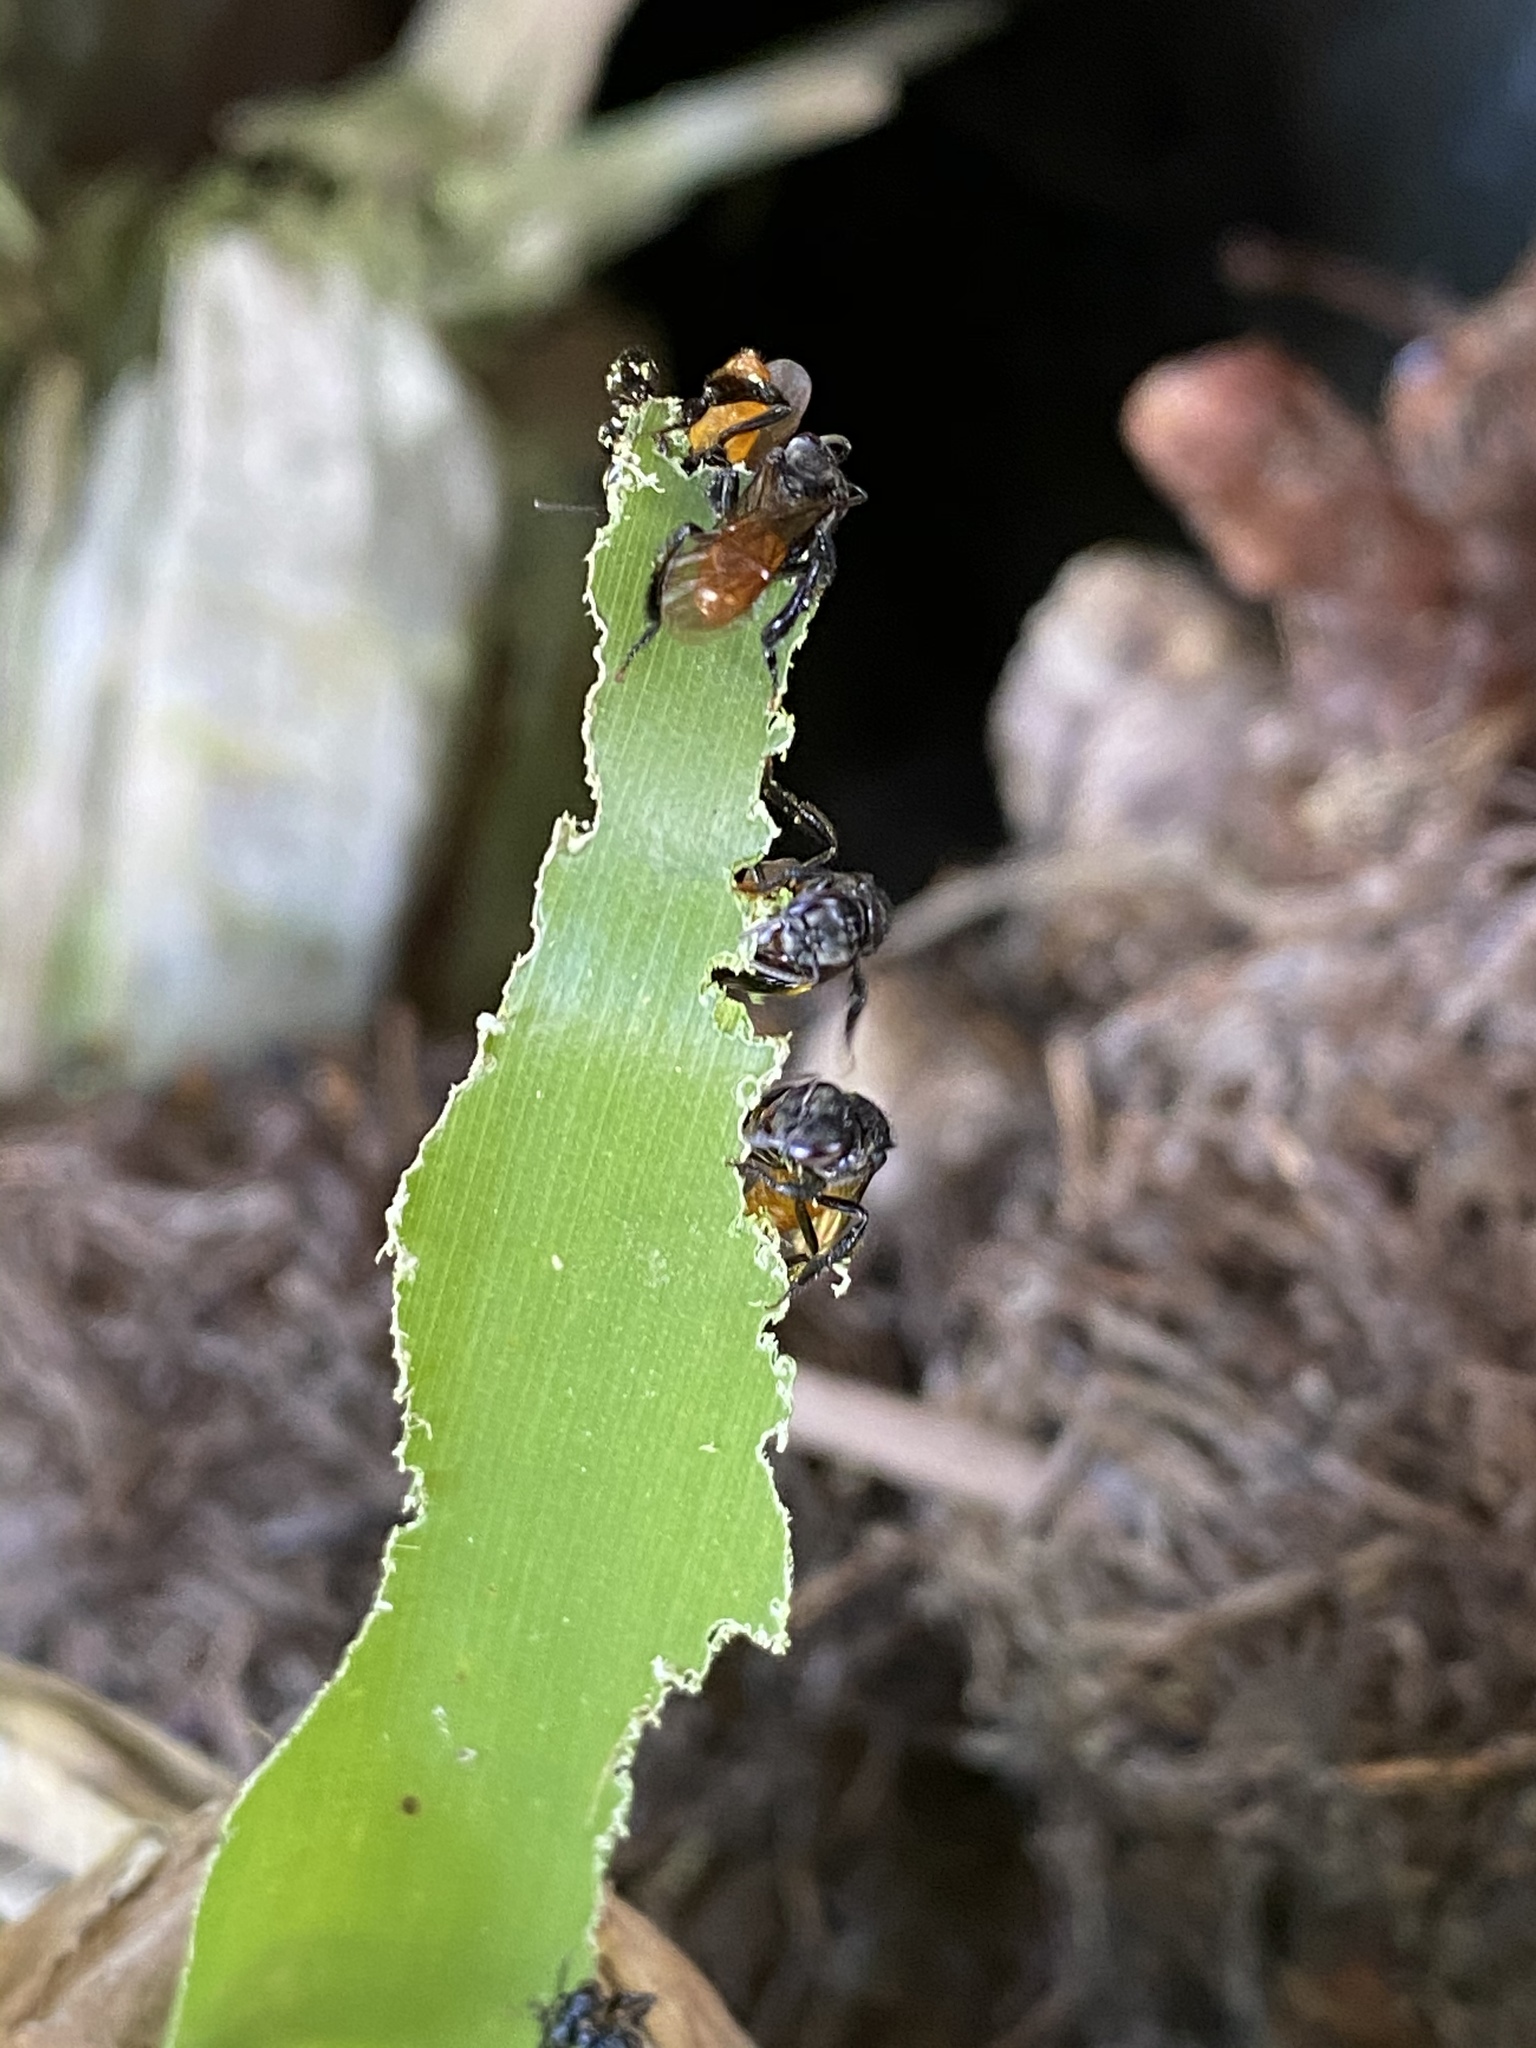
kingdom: Animalia
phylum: Arthropoda
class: Insecta
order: Hymenoptera
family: Apidae
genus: Trigona
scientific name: Trigona fulviventris
